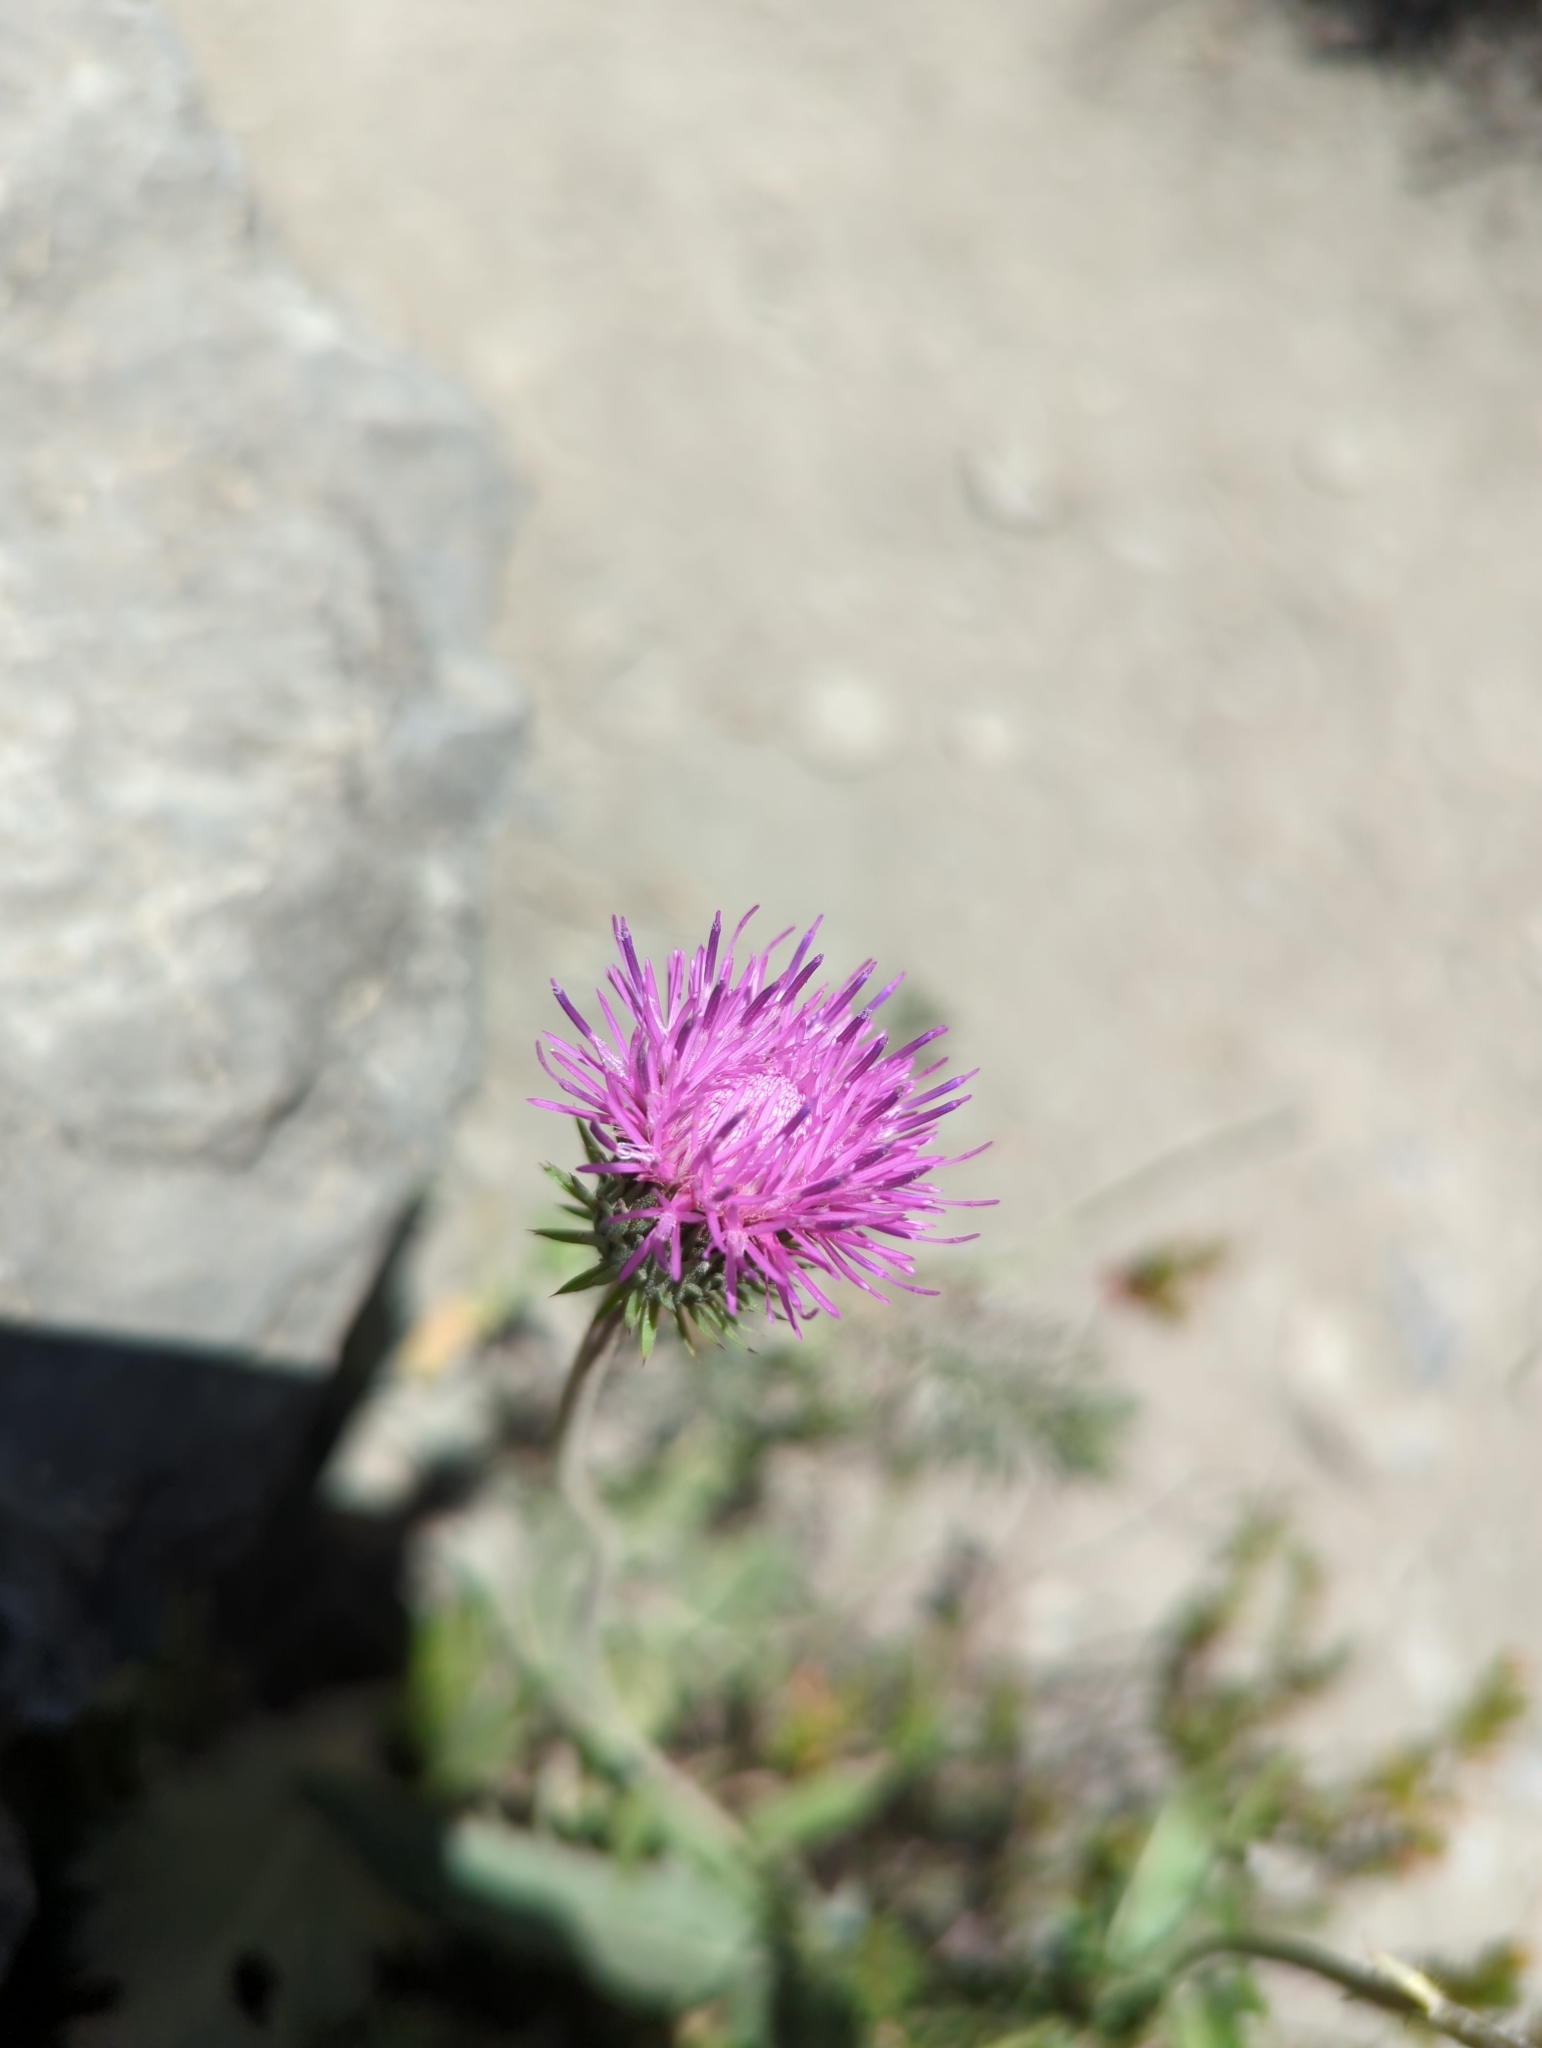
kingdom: Plantae
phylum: Tracheophyta
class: Magnoliopsida
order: Asterales
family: Asteraceae
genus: Carduus
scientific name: Carduus defloratus
